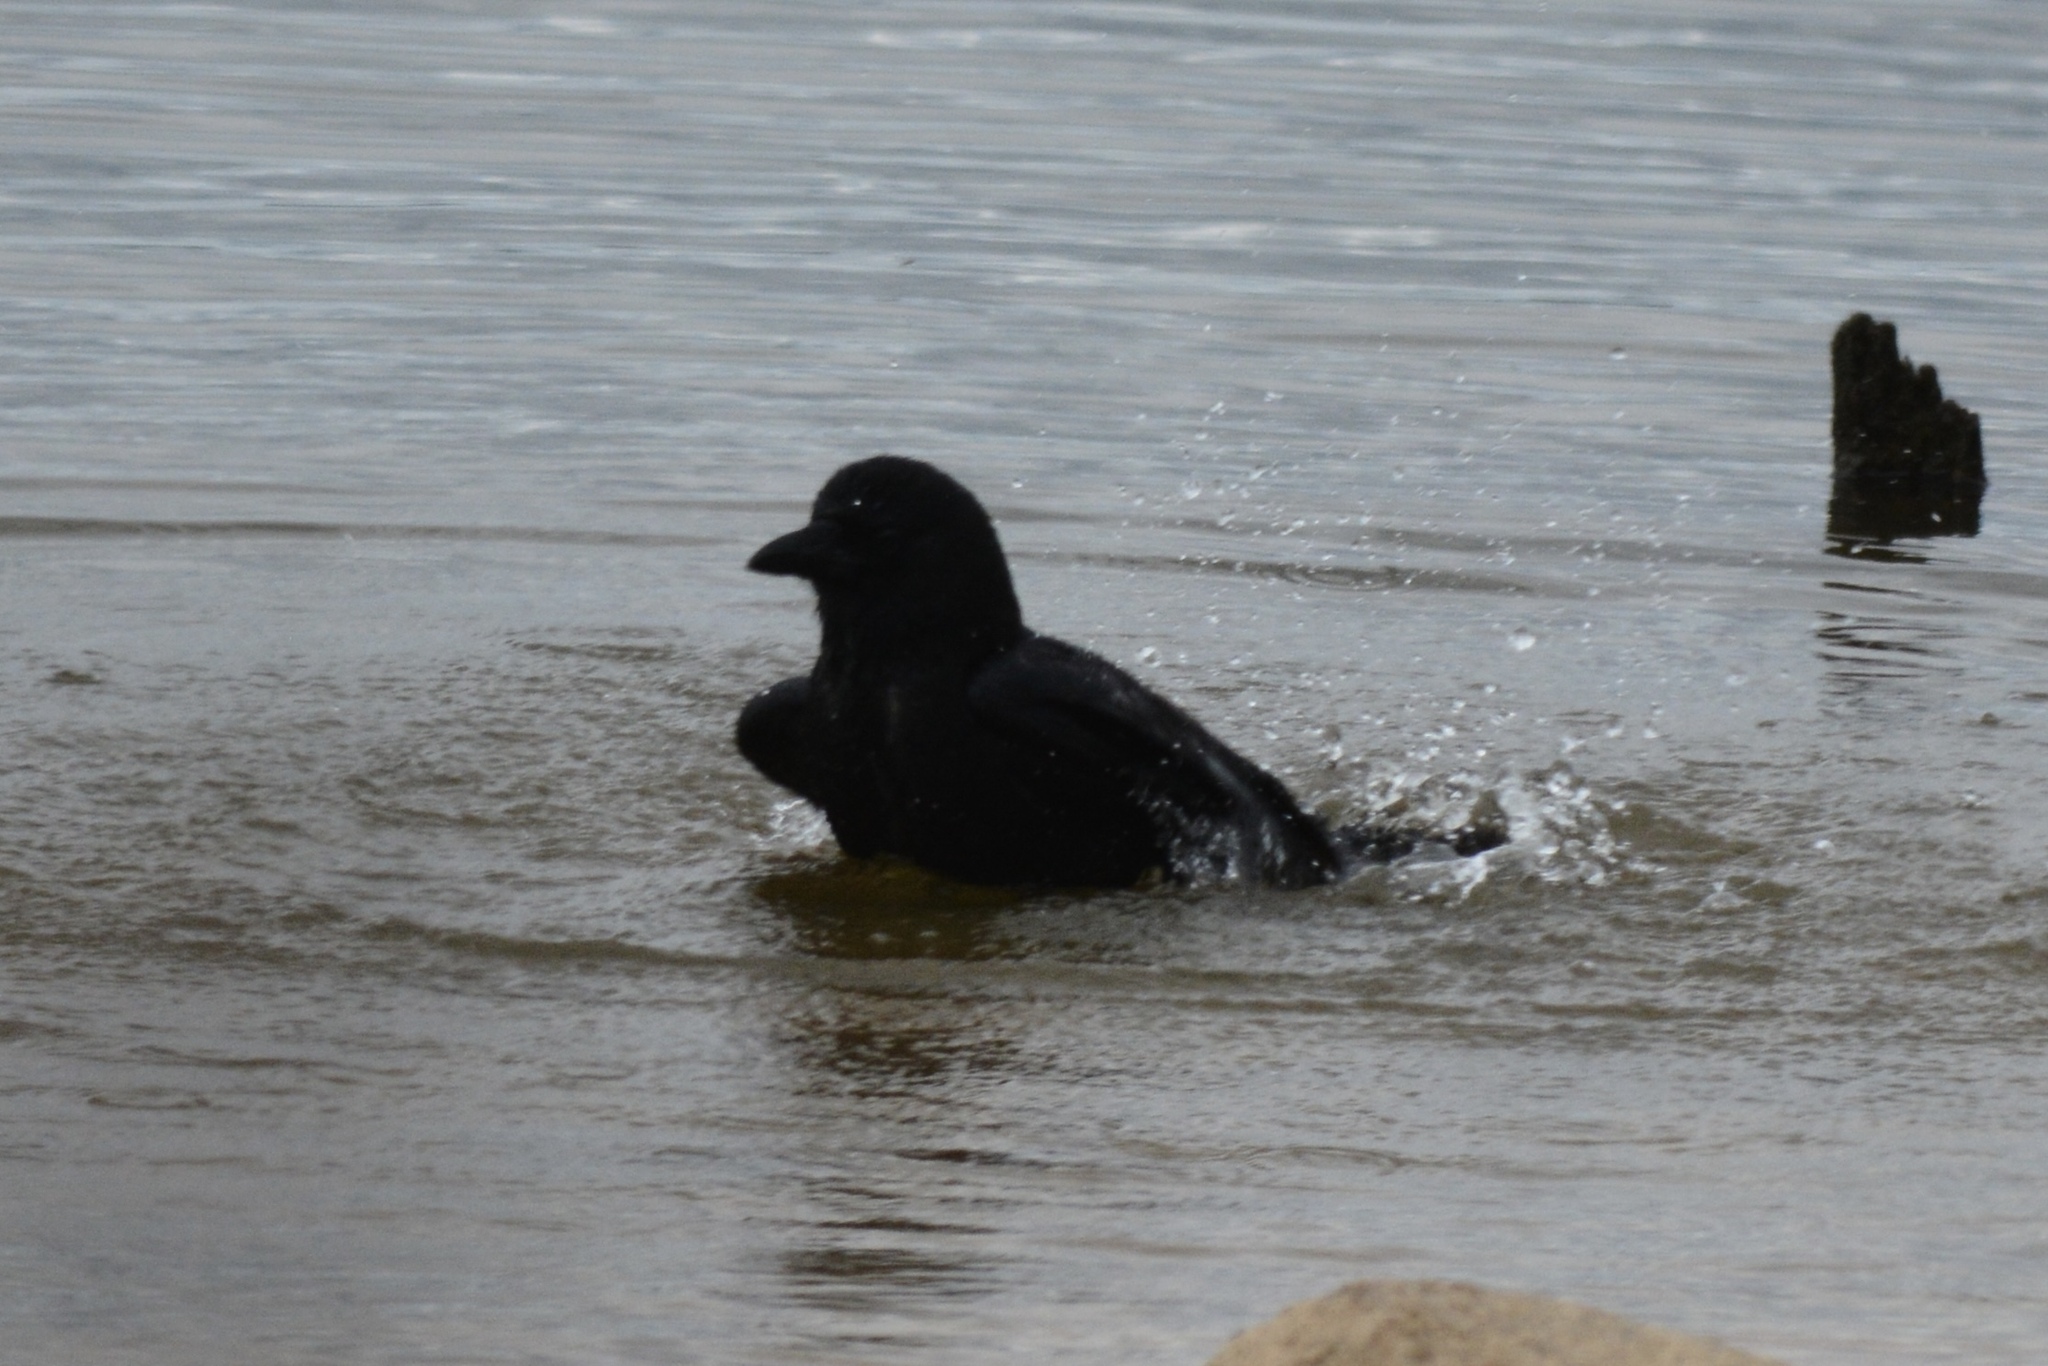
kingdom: Animalia
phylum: Chordata
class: Aves
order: Passeriformes
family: Corvidae
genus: Corvus
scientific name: Corvus
